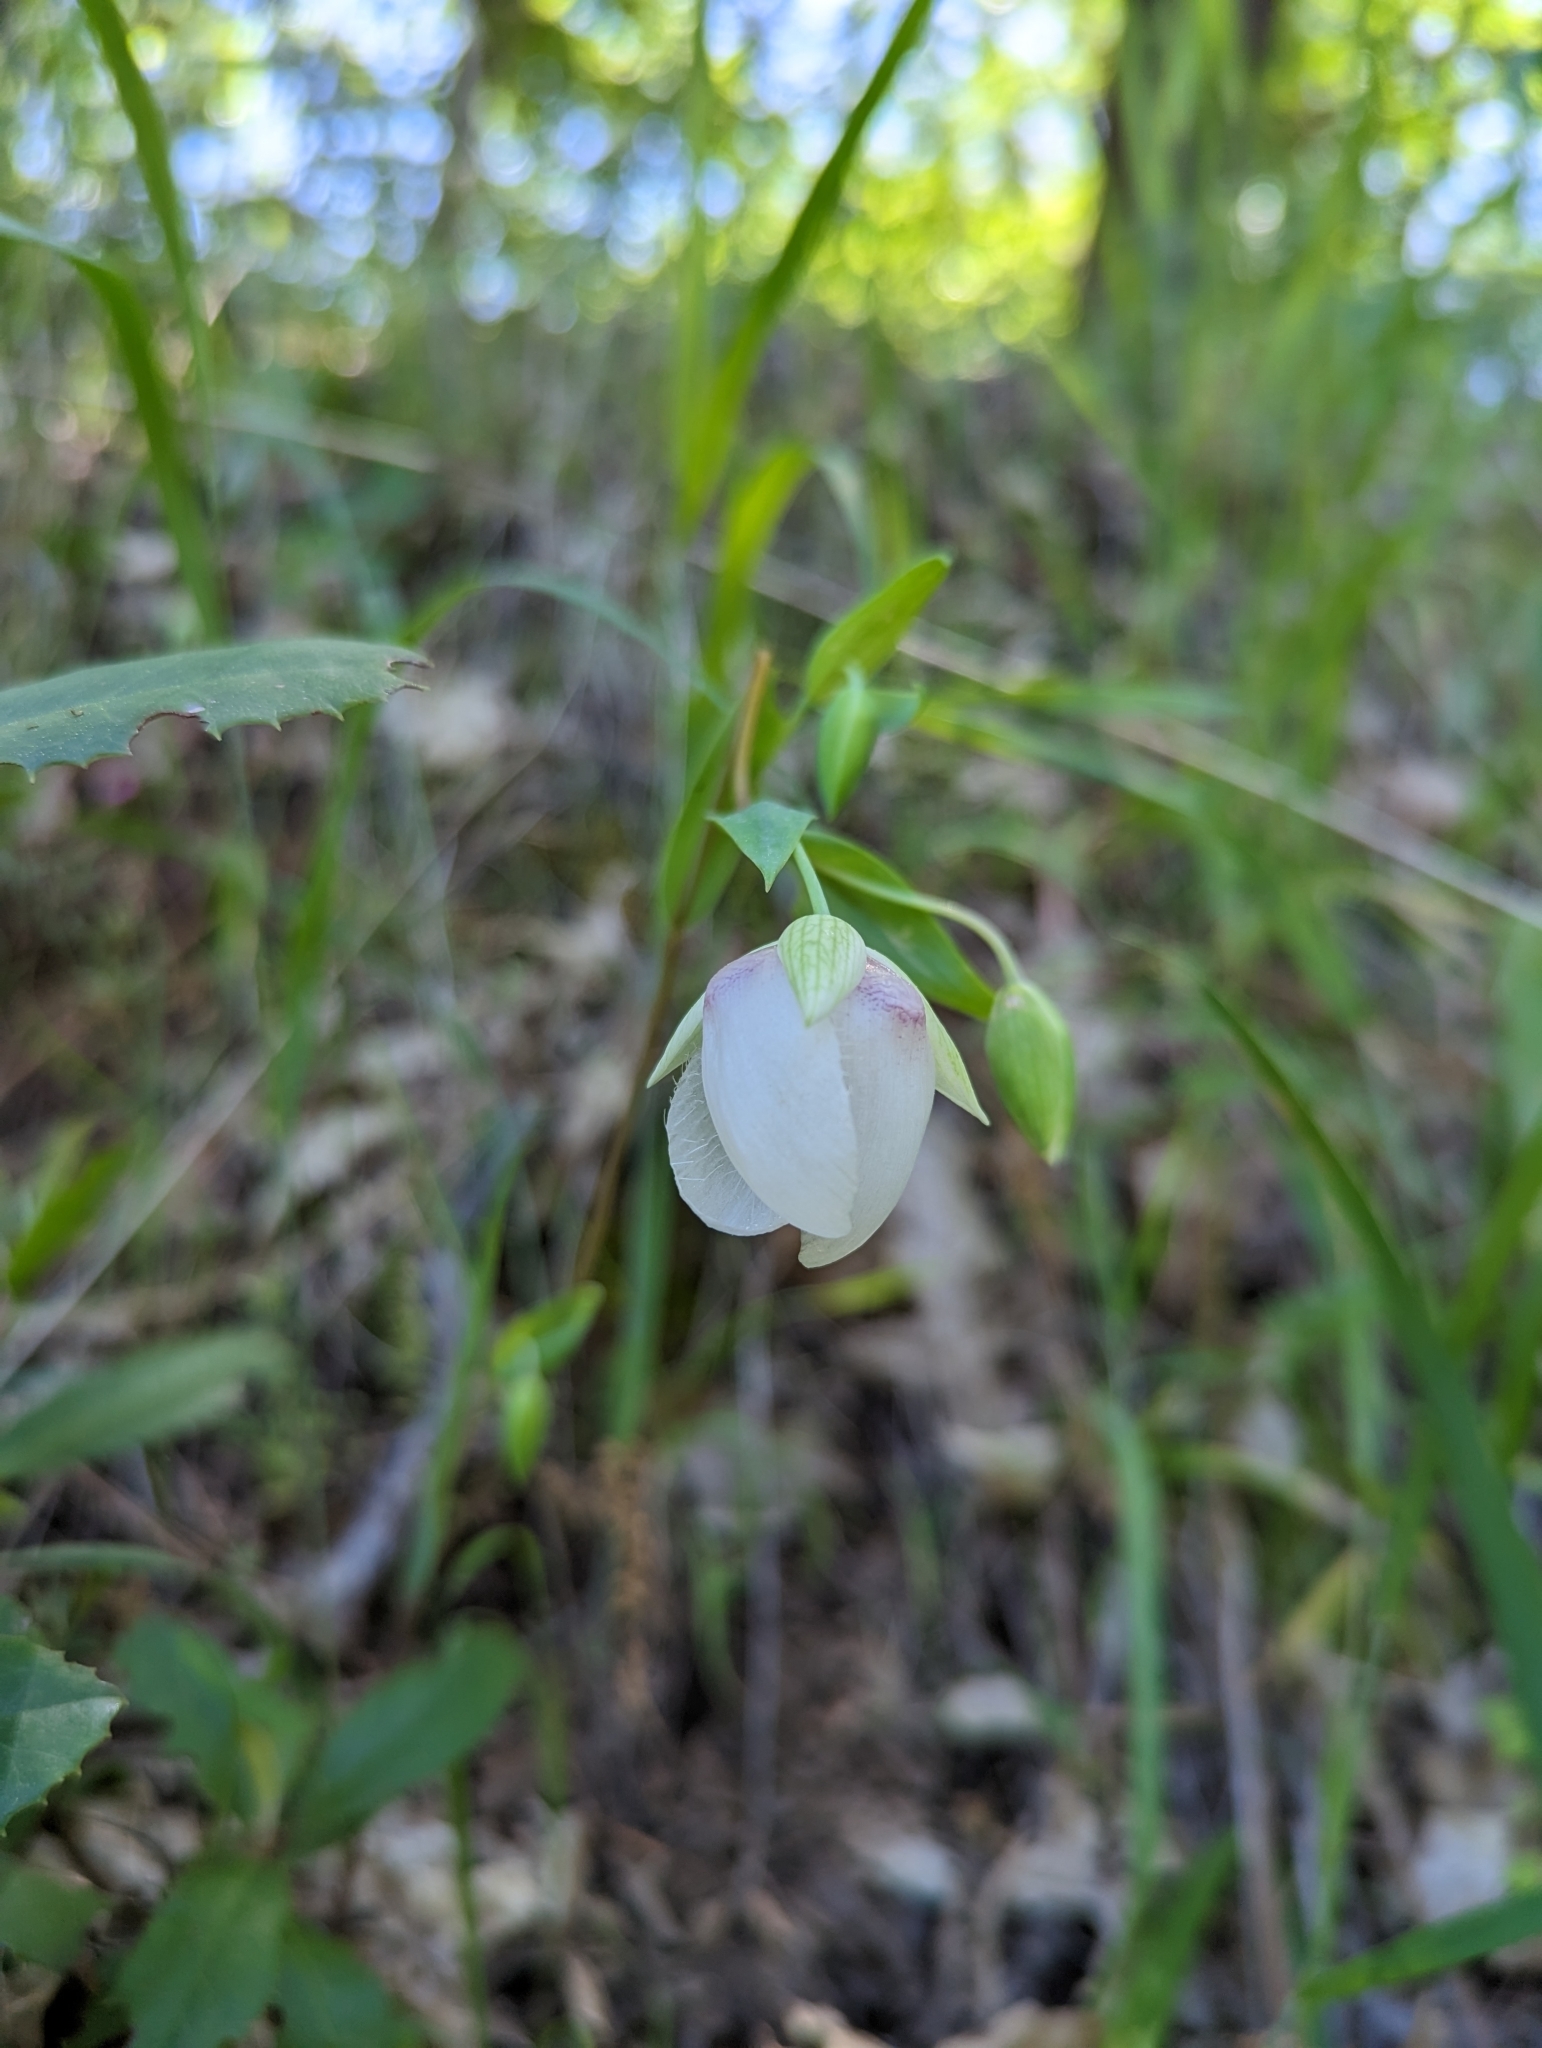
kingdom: Plantae
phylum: Tracheophyta
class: Liliopsida
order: Liliales
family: Liliaceae
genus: Calochortus
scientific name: Calochortus albus
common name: Fairy-lantern
